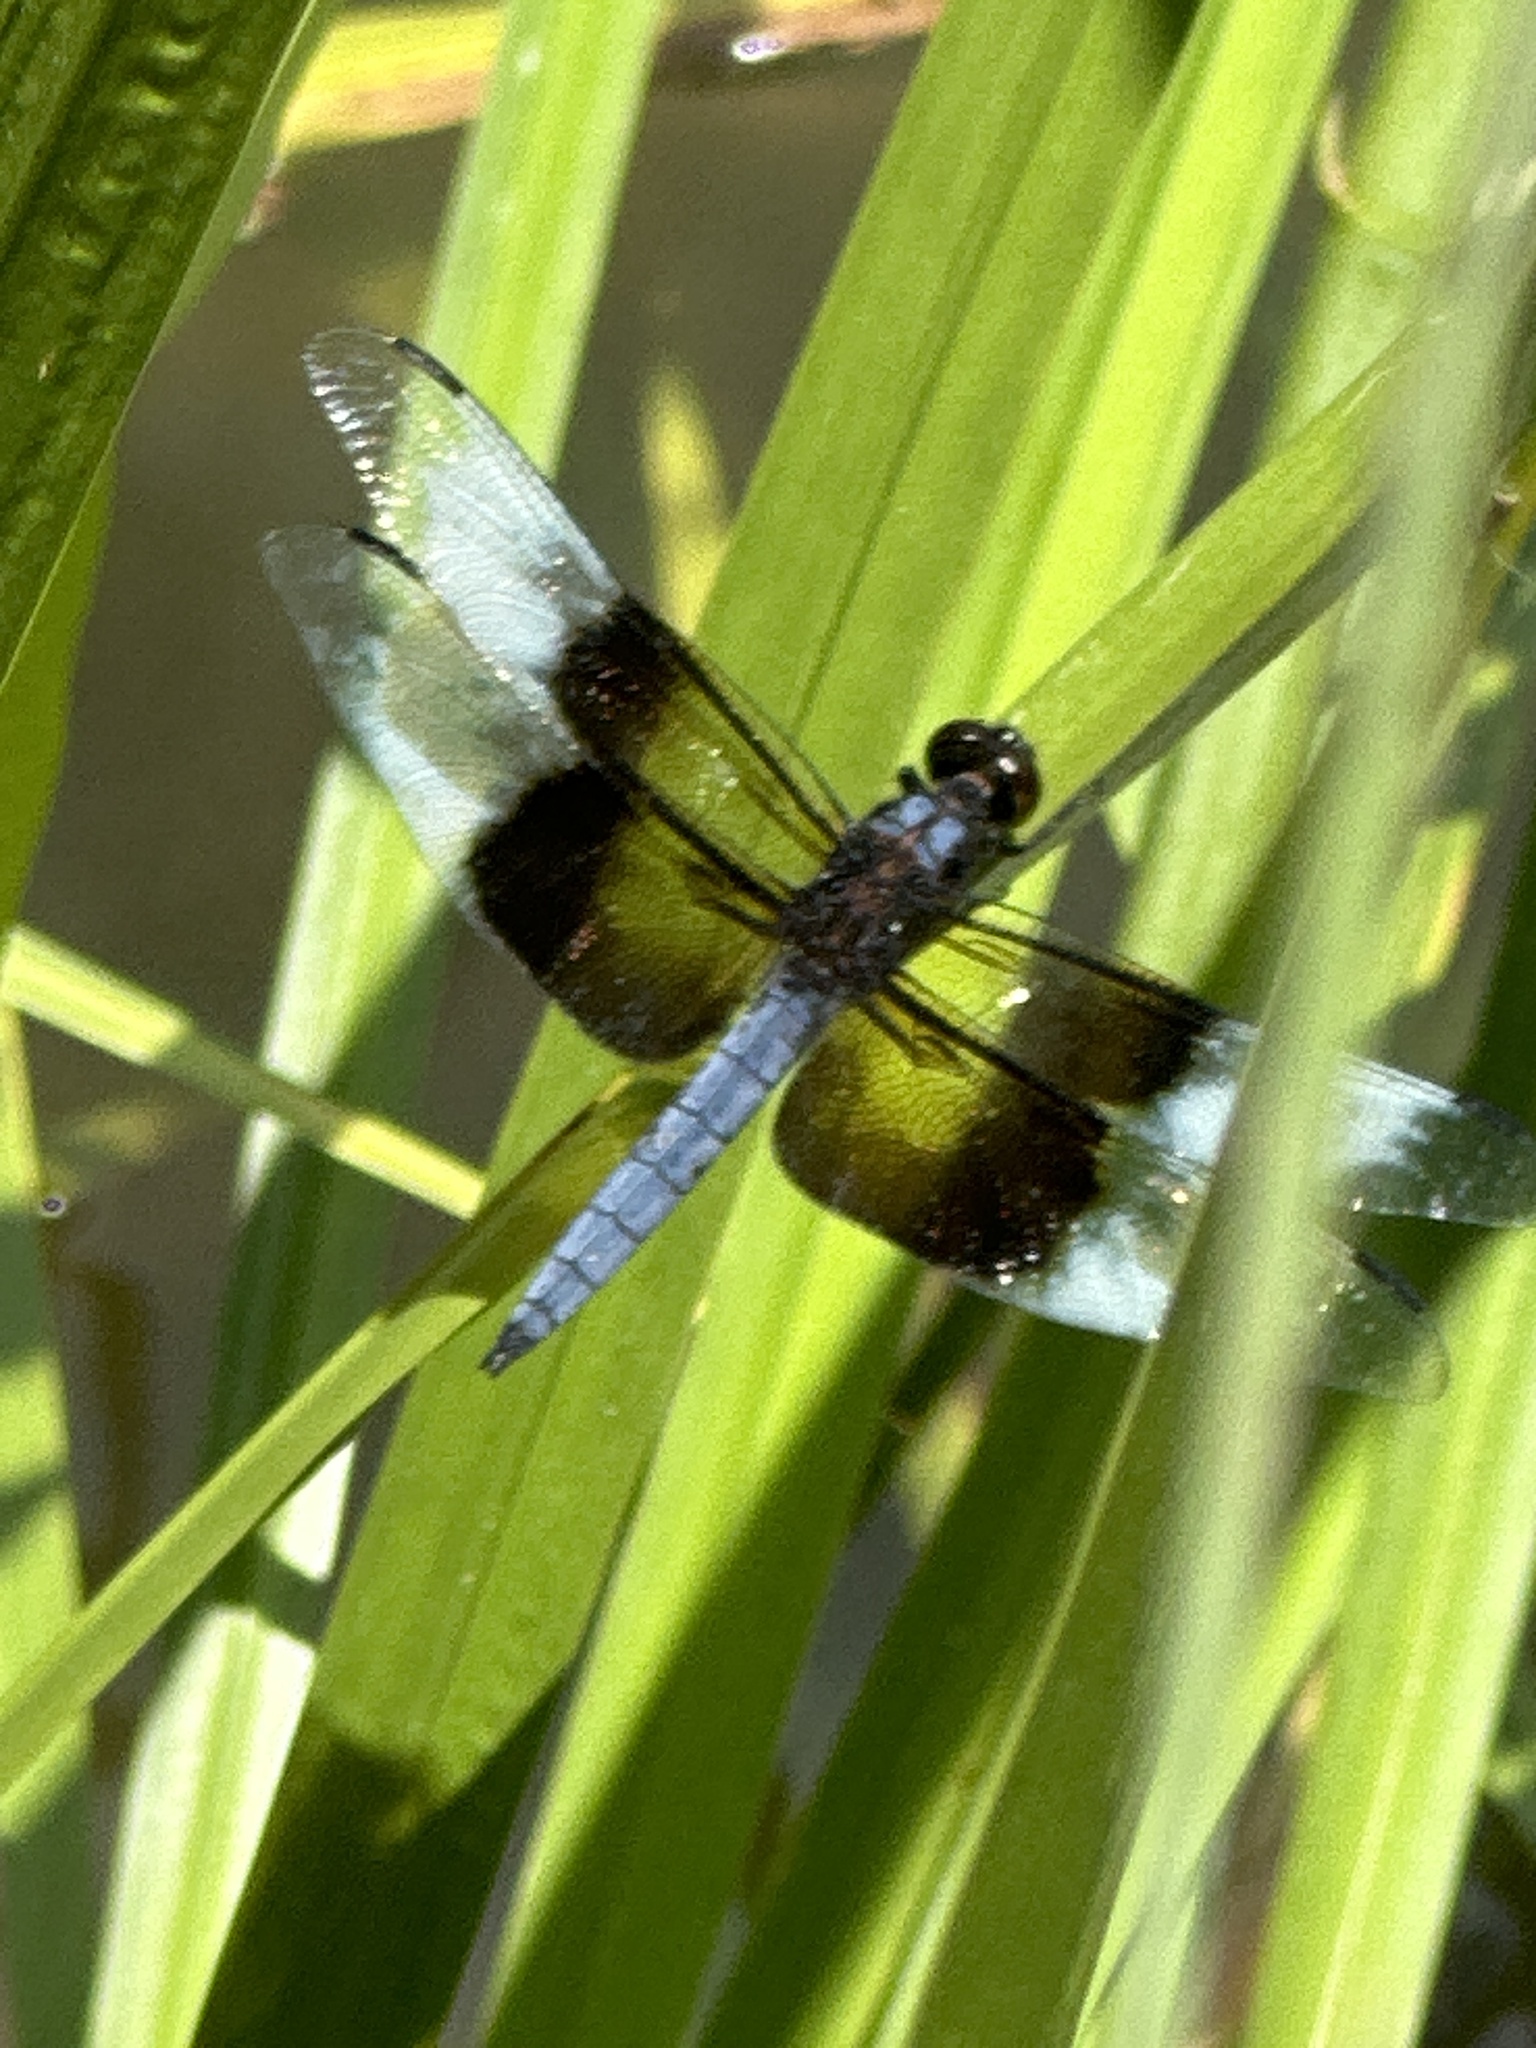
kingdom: Animalia
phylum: Arthropoda
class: Insecta
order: Odonata
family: Libellulidae
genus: Libellula
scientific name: Libellula luctuosa
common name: Widow skimmer
